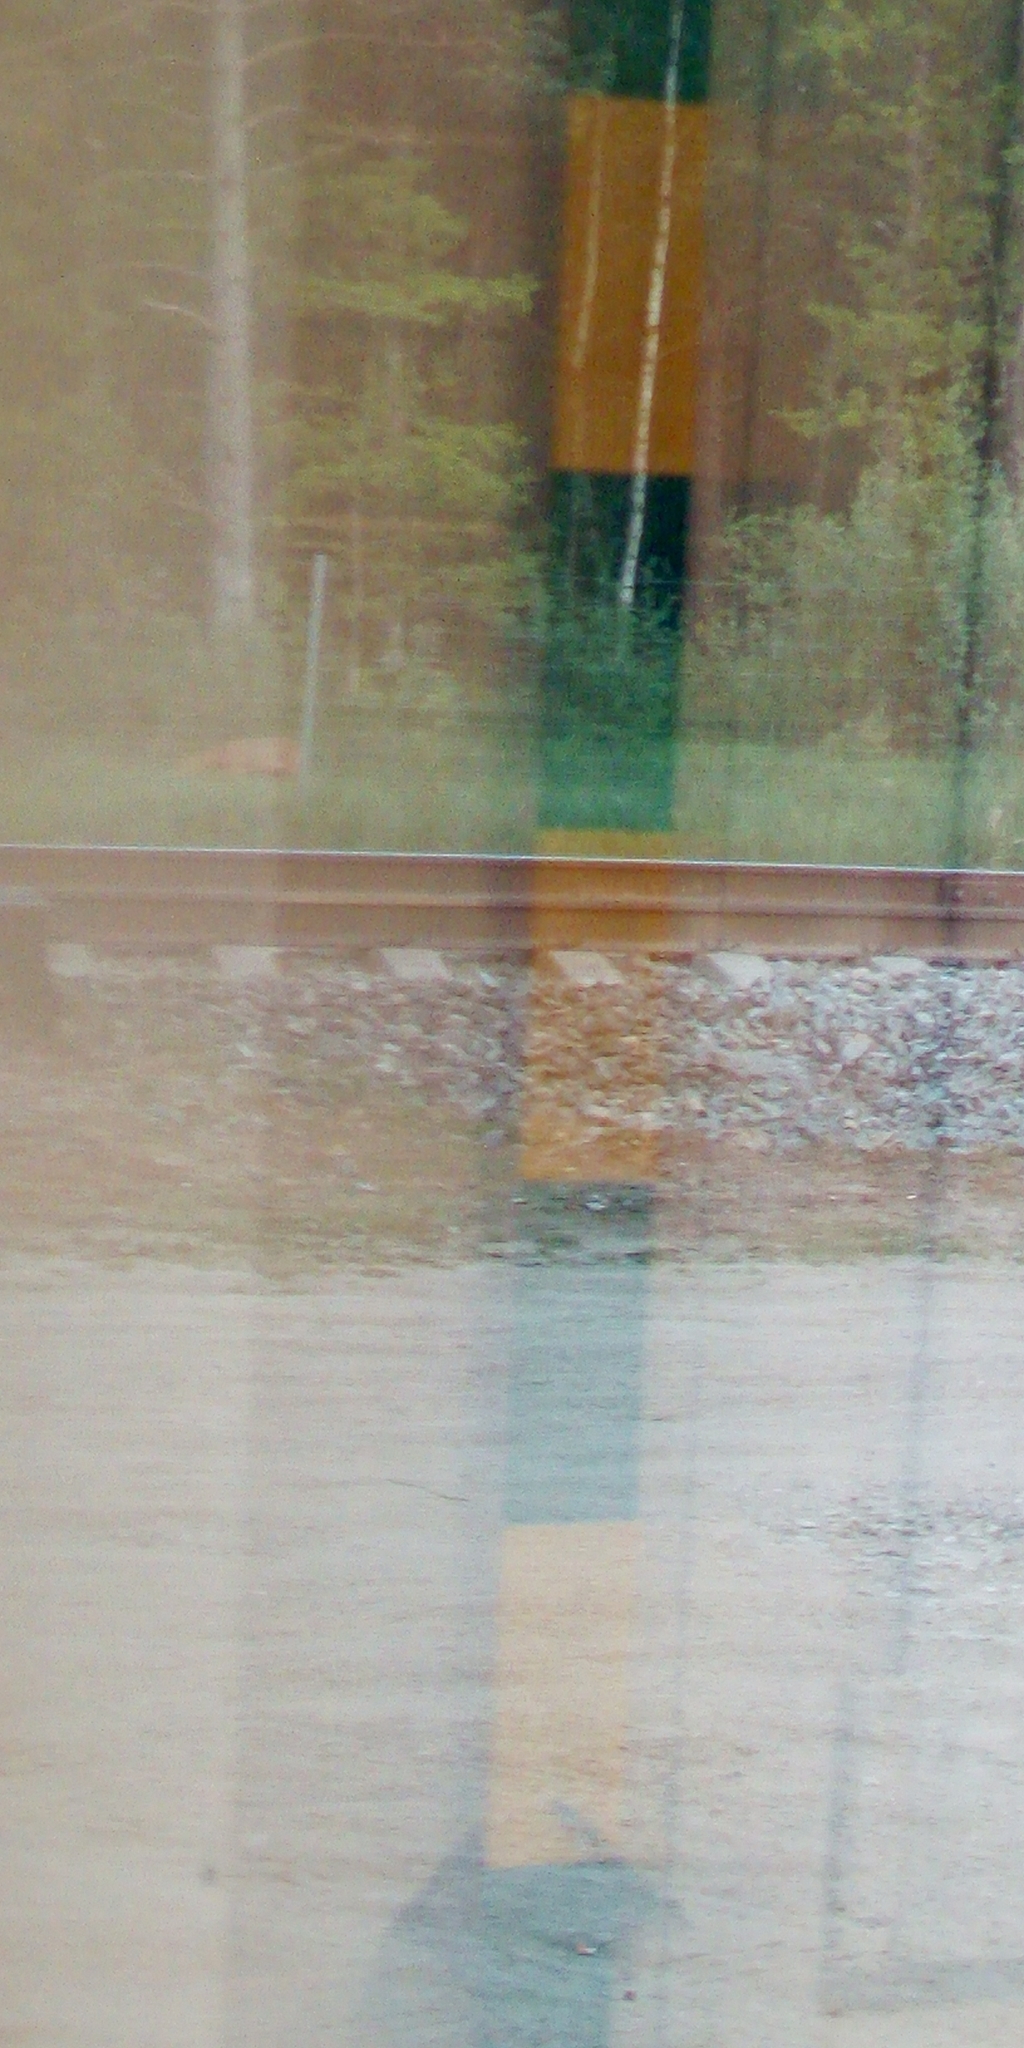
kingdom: Animalia
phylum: Chordata
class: Mammalia
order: Artiodactyla
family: Cervidae
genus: Capreolus
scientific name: Capreolus capreolus
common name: Western roe deer
